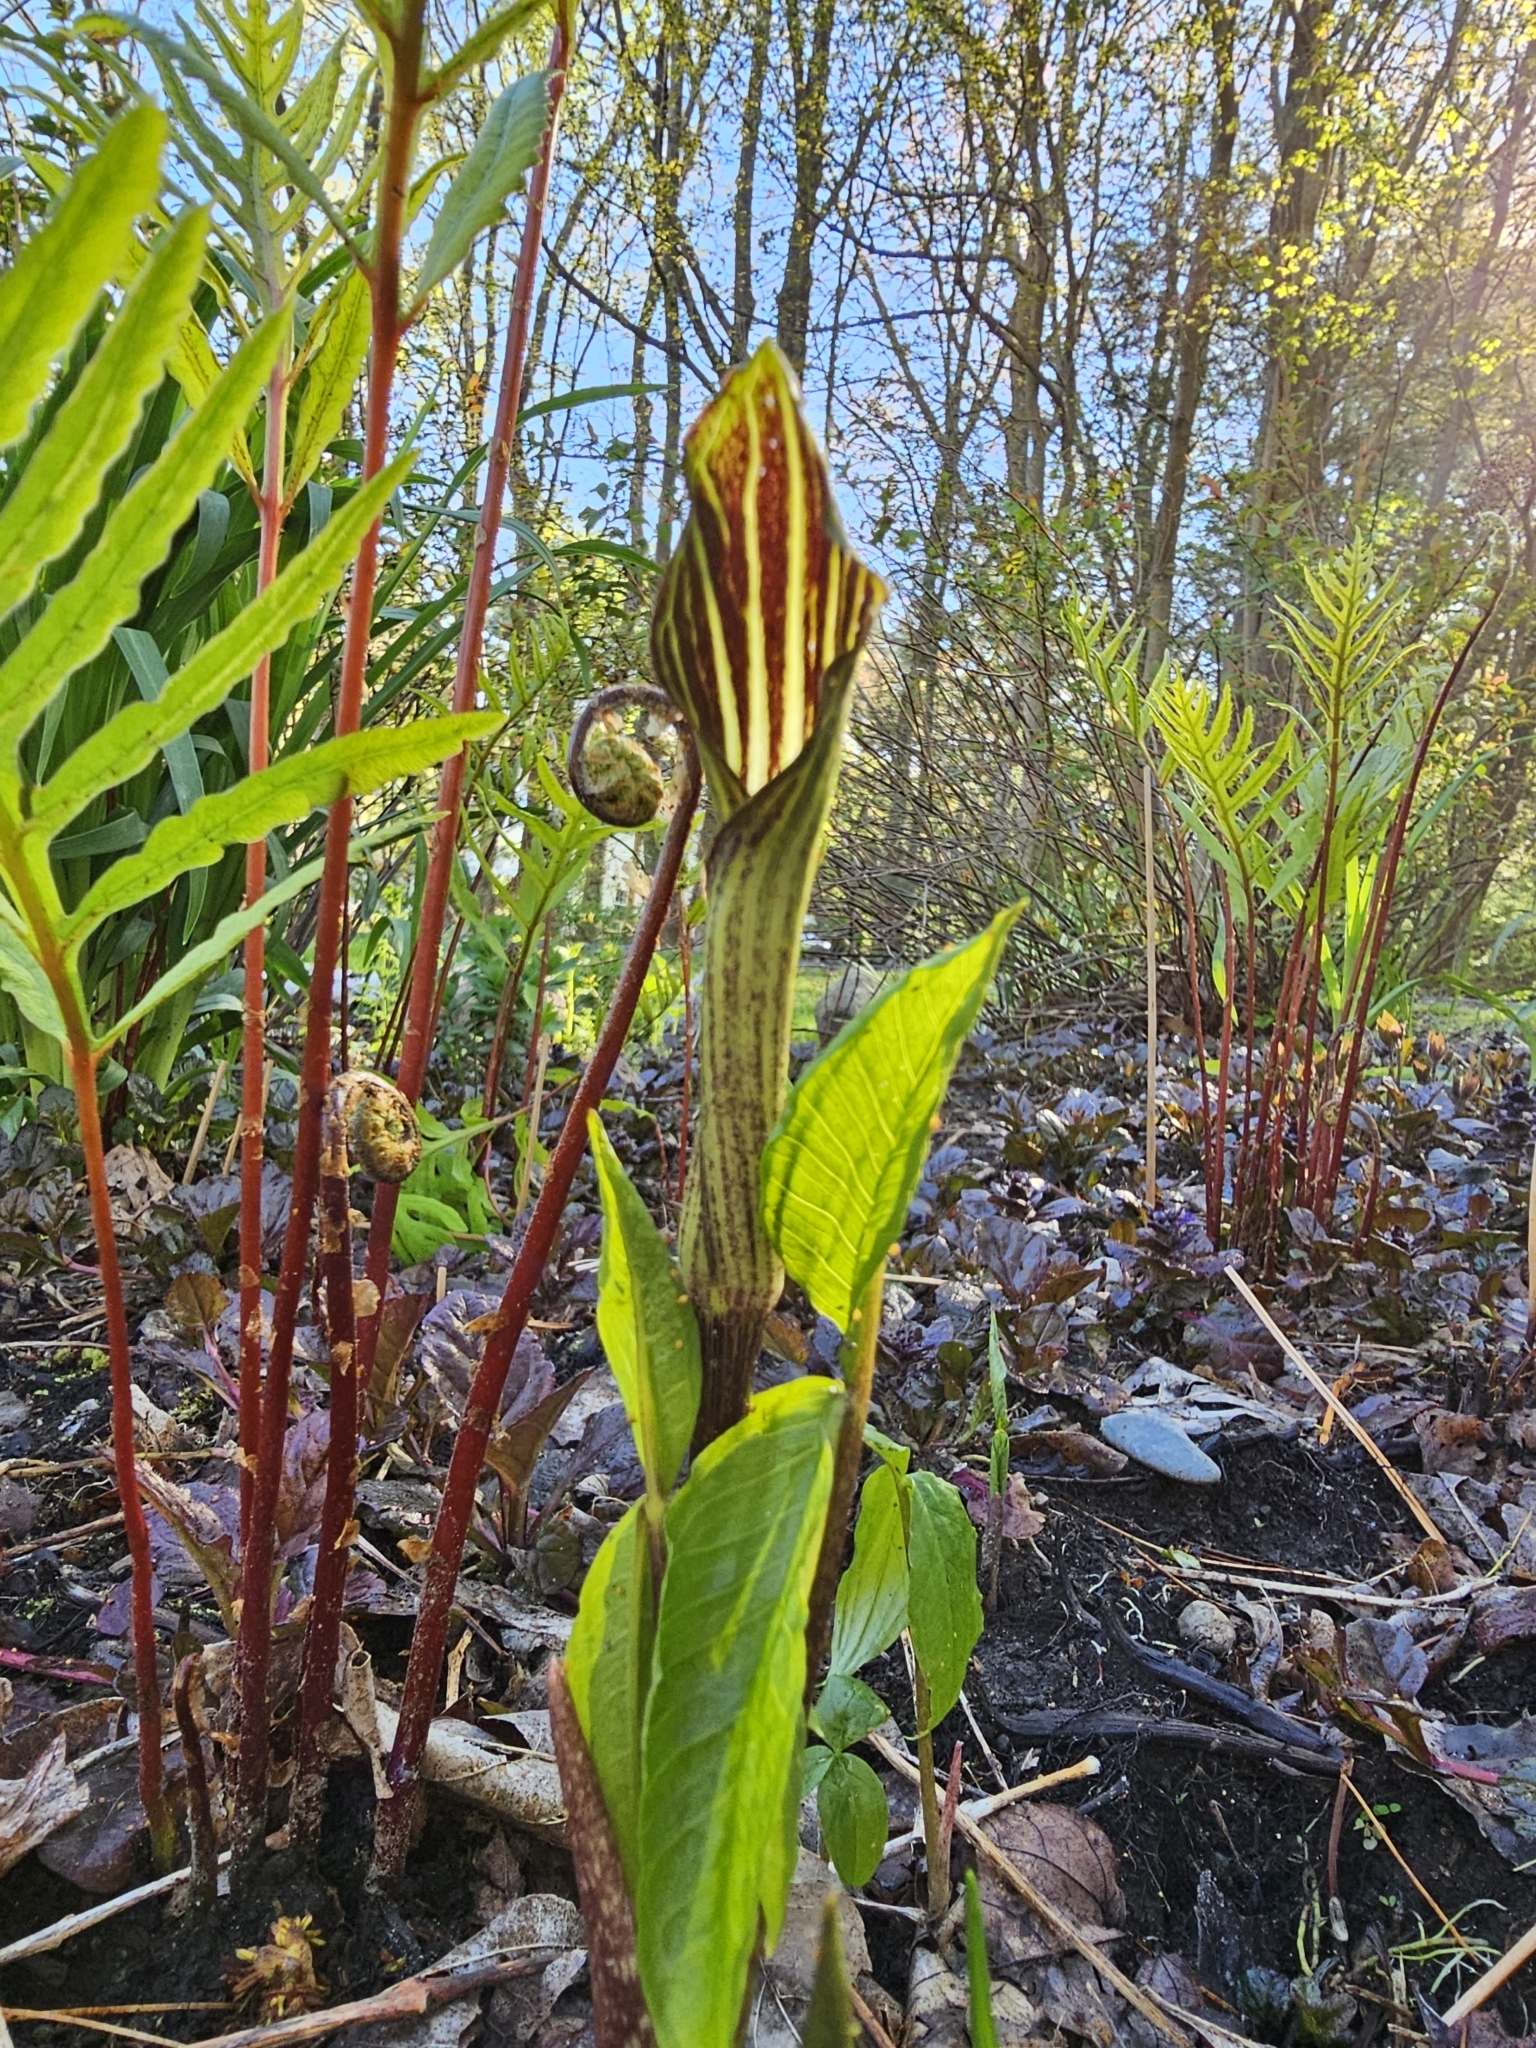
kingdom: Plantae
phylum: Tracheophyta
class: Liliopsida
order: Alismatales
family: Araceae
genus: Arisaema
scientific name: Arisaema triphyllum
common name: Jack-in-the-pulpit
